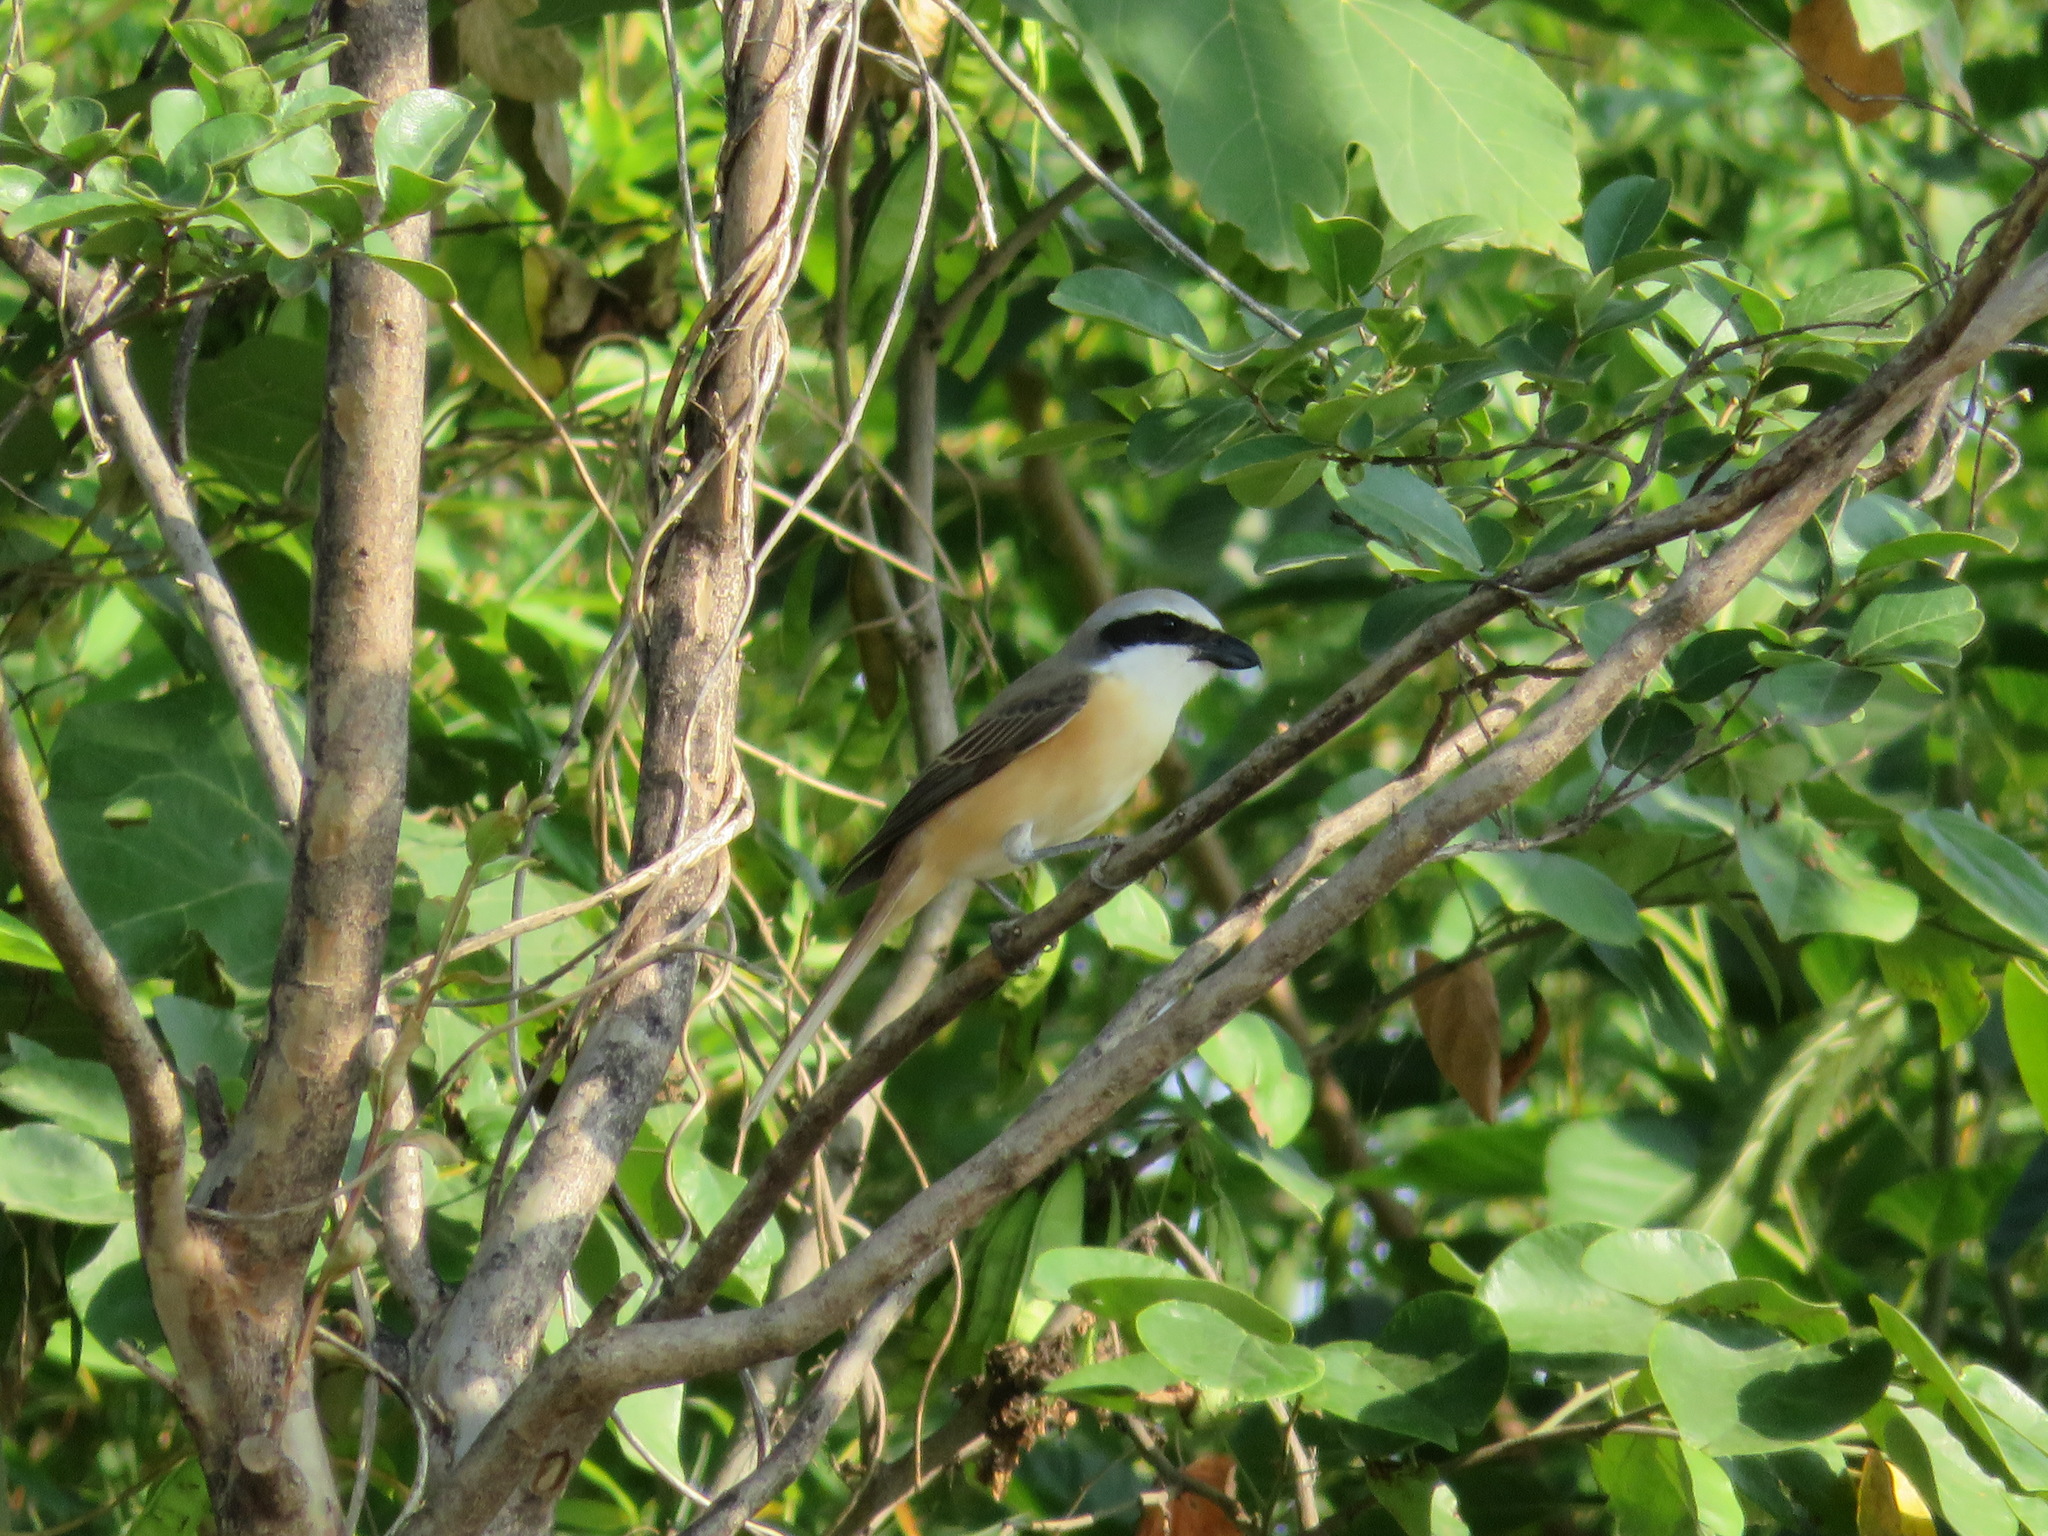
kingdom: Animalia
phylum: Chordata
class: Aves
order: Passeriformes
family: Laniidae
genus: Lanius
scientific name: Lanius cristatus
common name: Brown shrike
